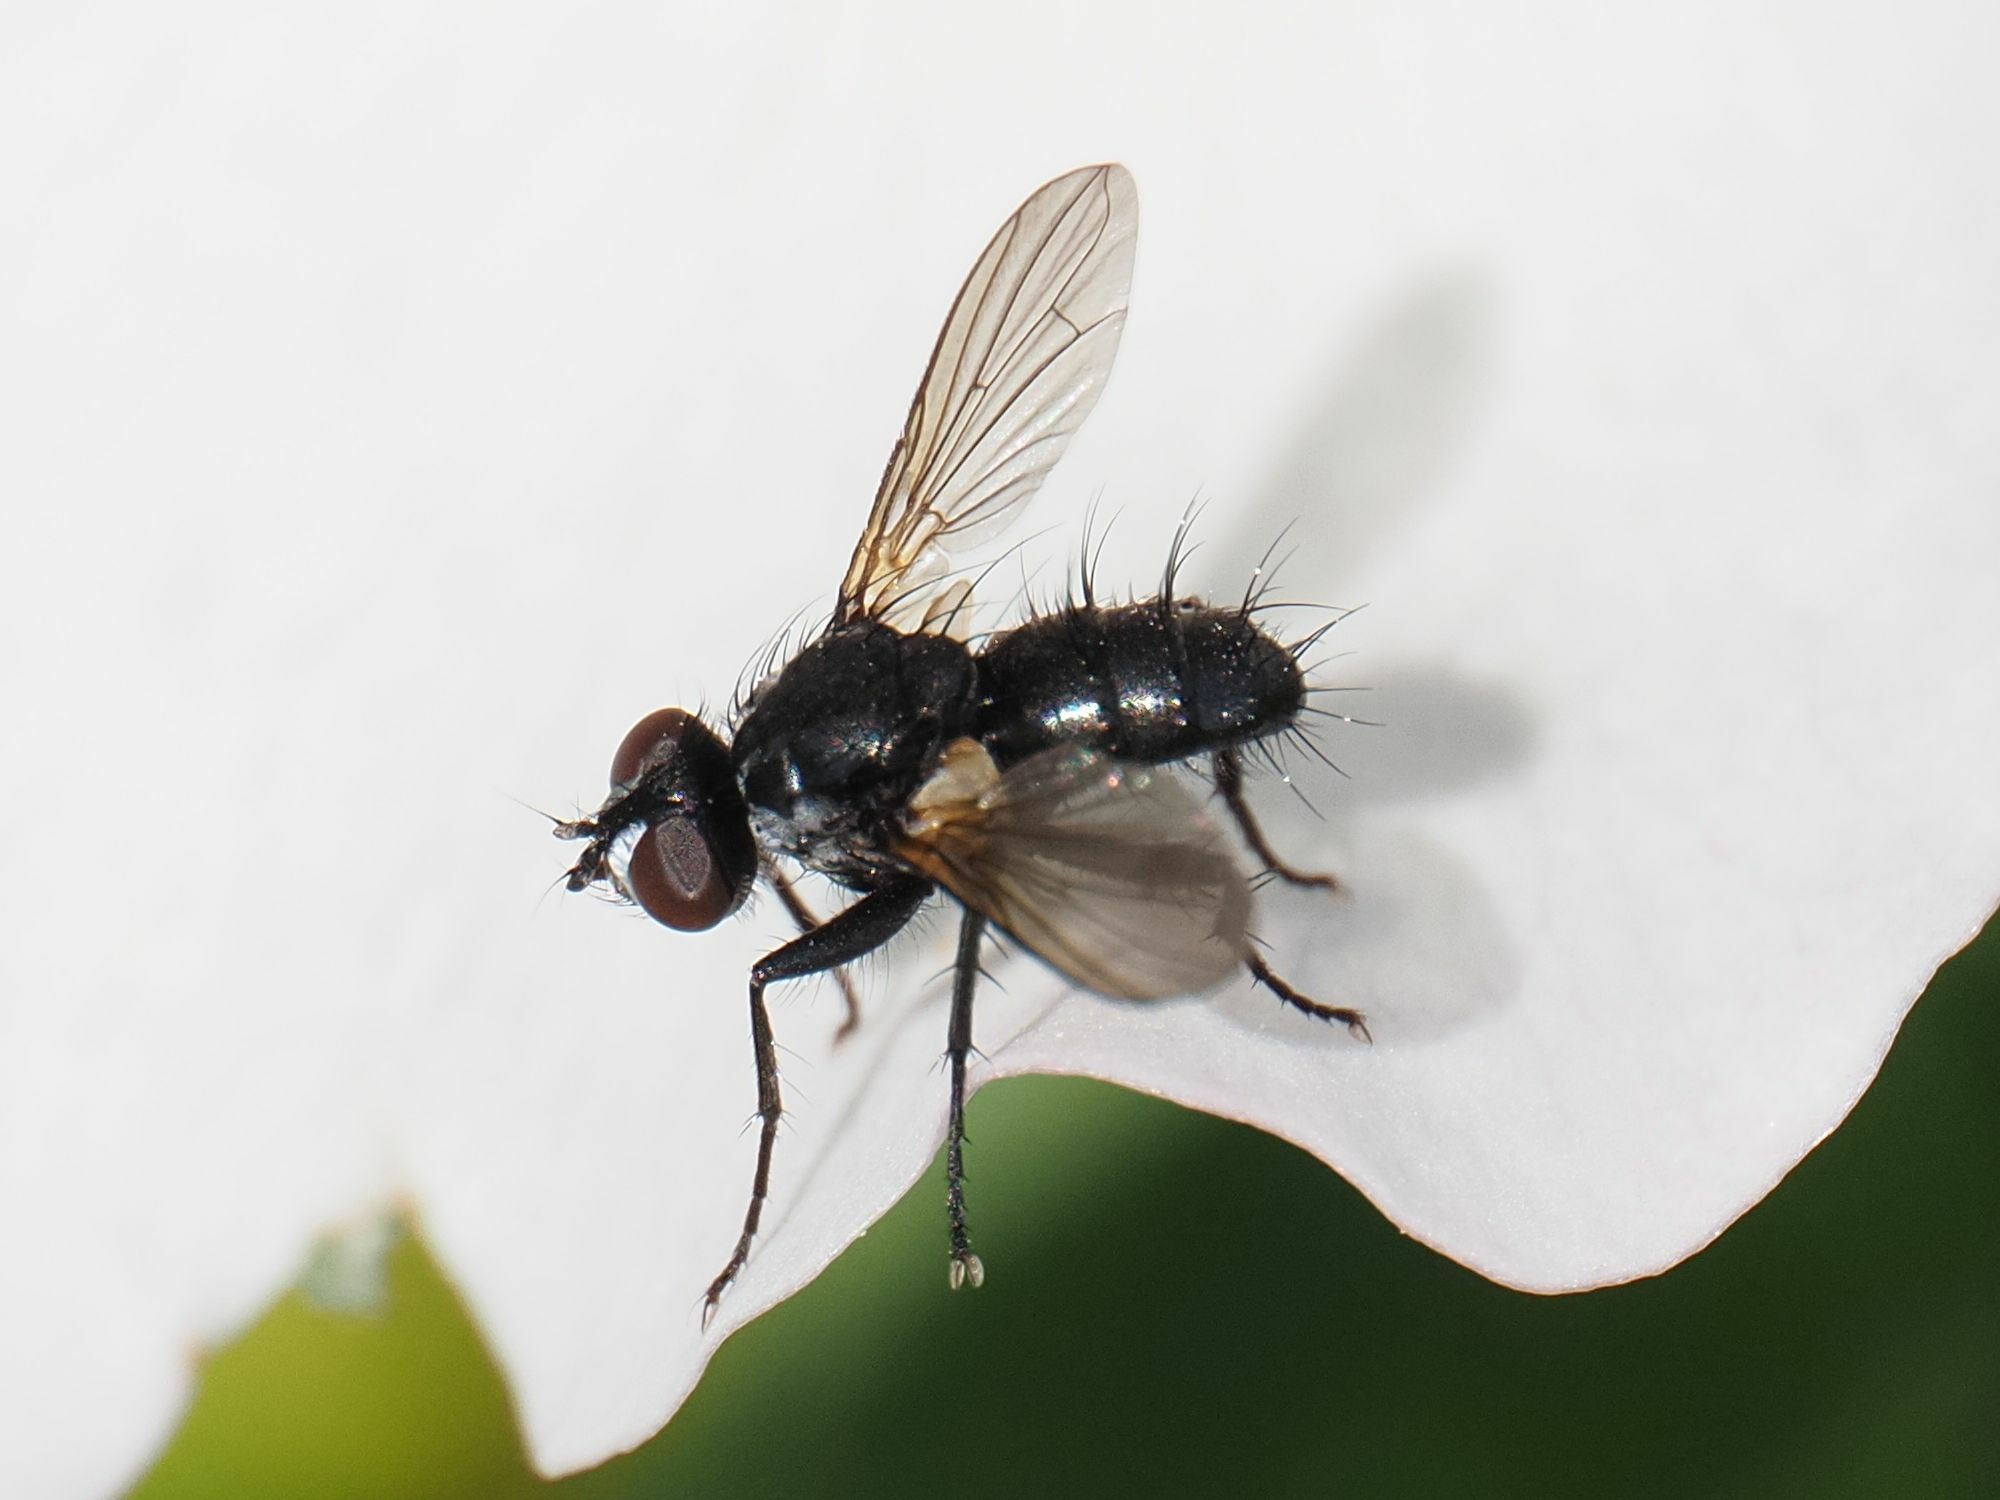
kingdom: Animalia
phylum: Arthropoda
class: Insecta
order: Diptera
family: Tachinidae
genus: Phania
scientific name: Phania funesta
